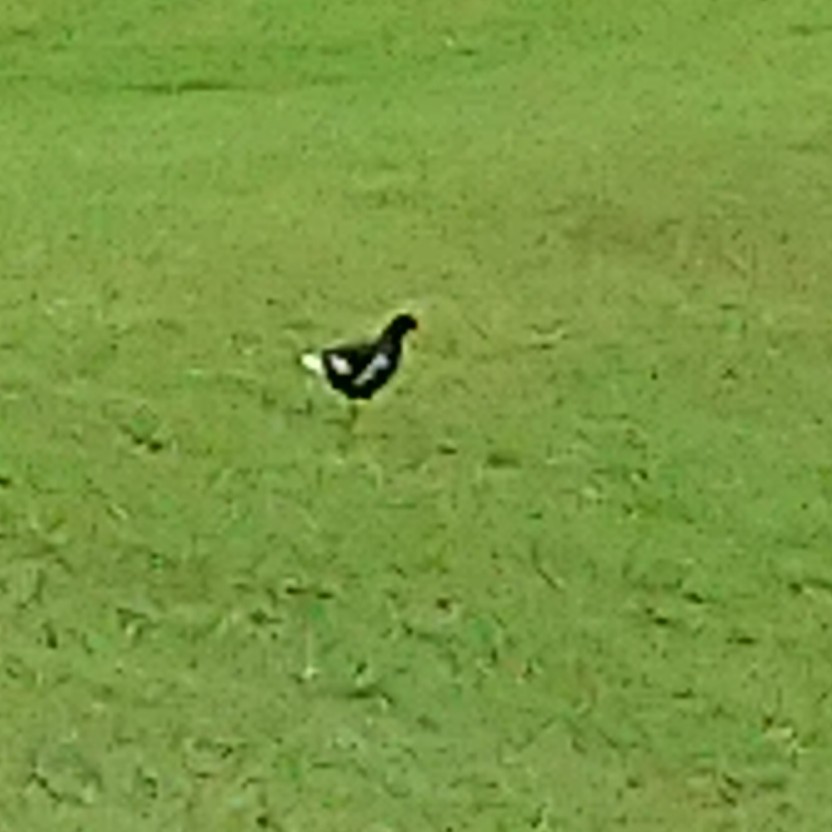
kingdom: Animalia
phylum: Chordata
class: Aves
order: Gruiformes
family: Rallidae
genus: Gallinula
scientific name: Gallinula chloropus
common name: Common moorhen
